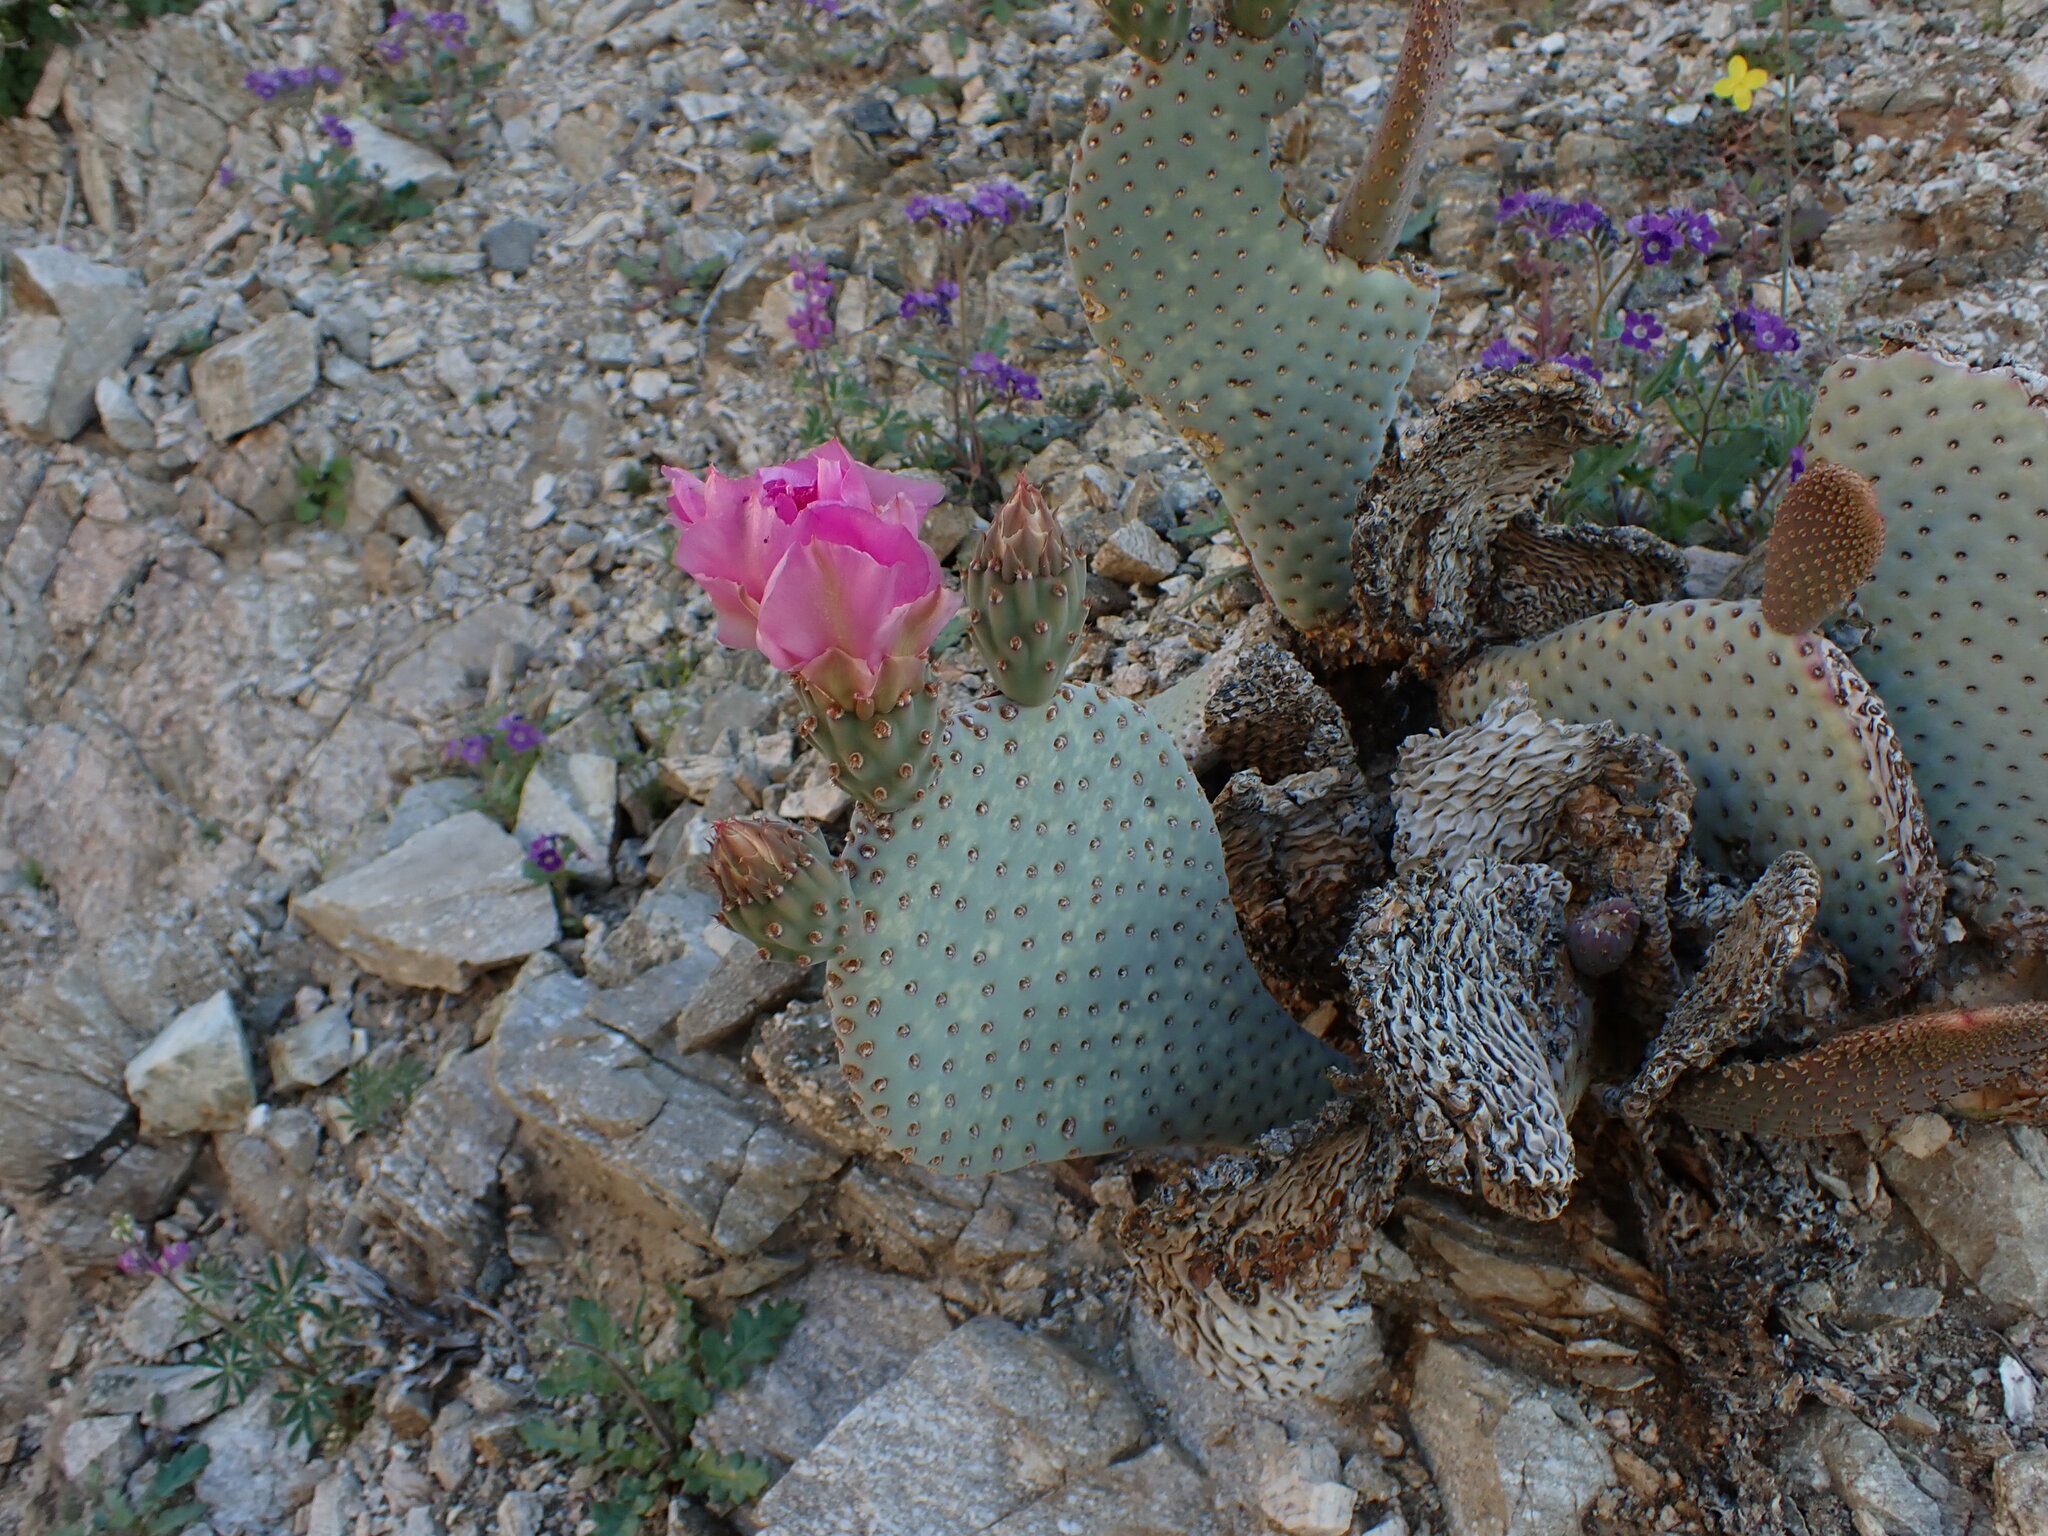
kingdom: Plantae
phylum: Tracheophyta
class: Magnoliopsida
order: Caryophyllales
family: Cactaceae
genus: Opuntia
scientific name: Opuntia basilaris
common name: Beavertail prickly-pear
